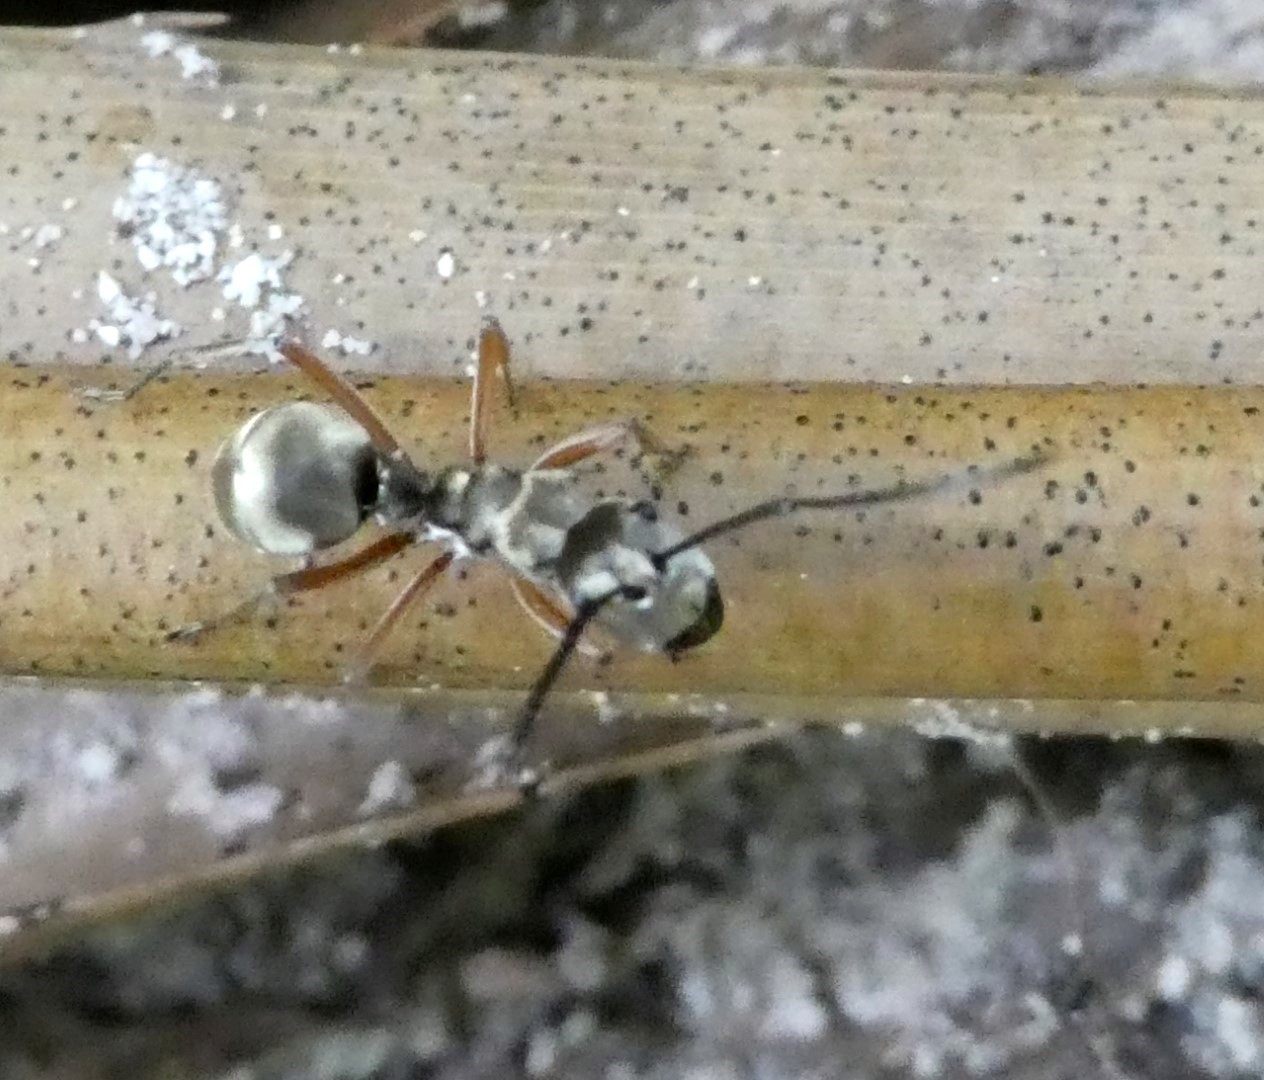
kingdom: Animalia
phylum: Arthropoda
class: Insecta
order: Hymenoptera
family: Formicidae
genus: Polyrhachis
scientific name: Polyrhachis andromache
